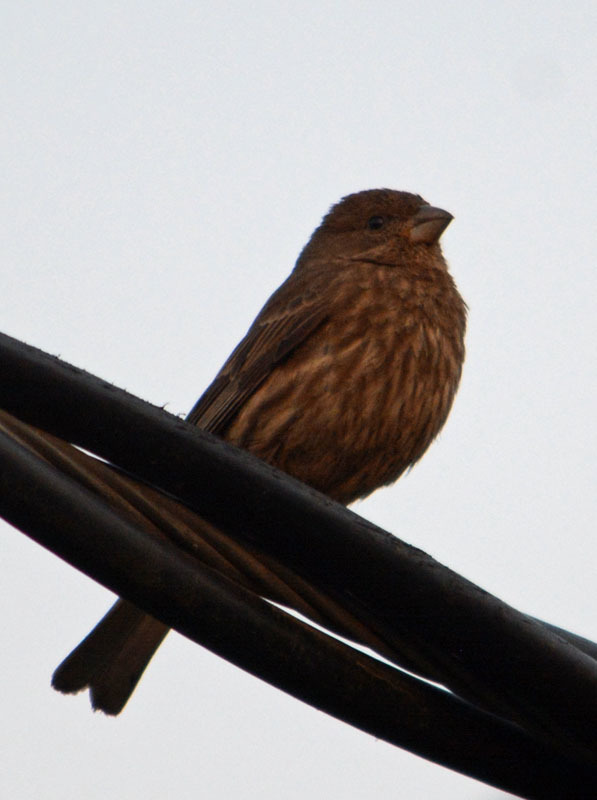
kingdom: Animalia
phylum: Chordata
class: Aves
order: Passeriformes
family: Fringillidae
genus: Haemorhous
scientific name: Haemorhous mexicanus
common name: House finch
